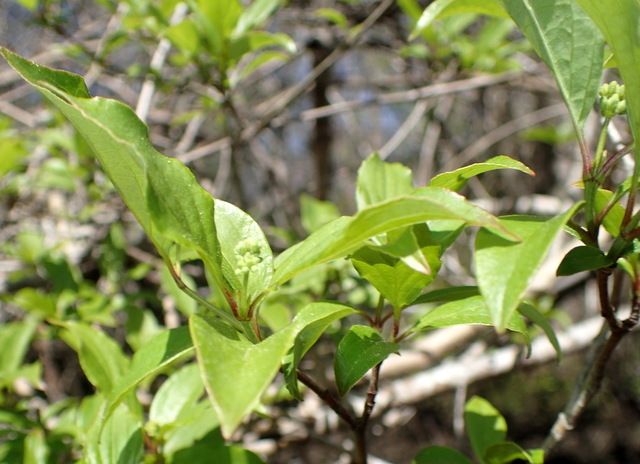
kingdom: Plantae
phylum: Tracheophyta
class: Magnoliopsida
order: Cornales
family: Cornaceae
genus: Cornus
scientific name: Cornus foemina
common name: Swamp dogwood
